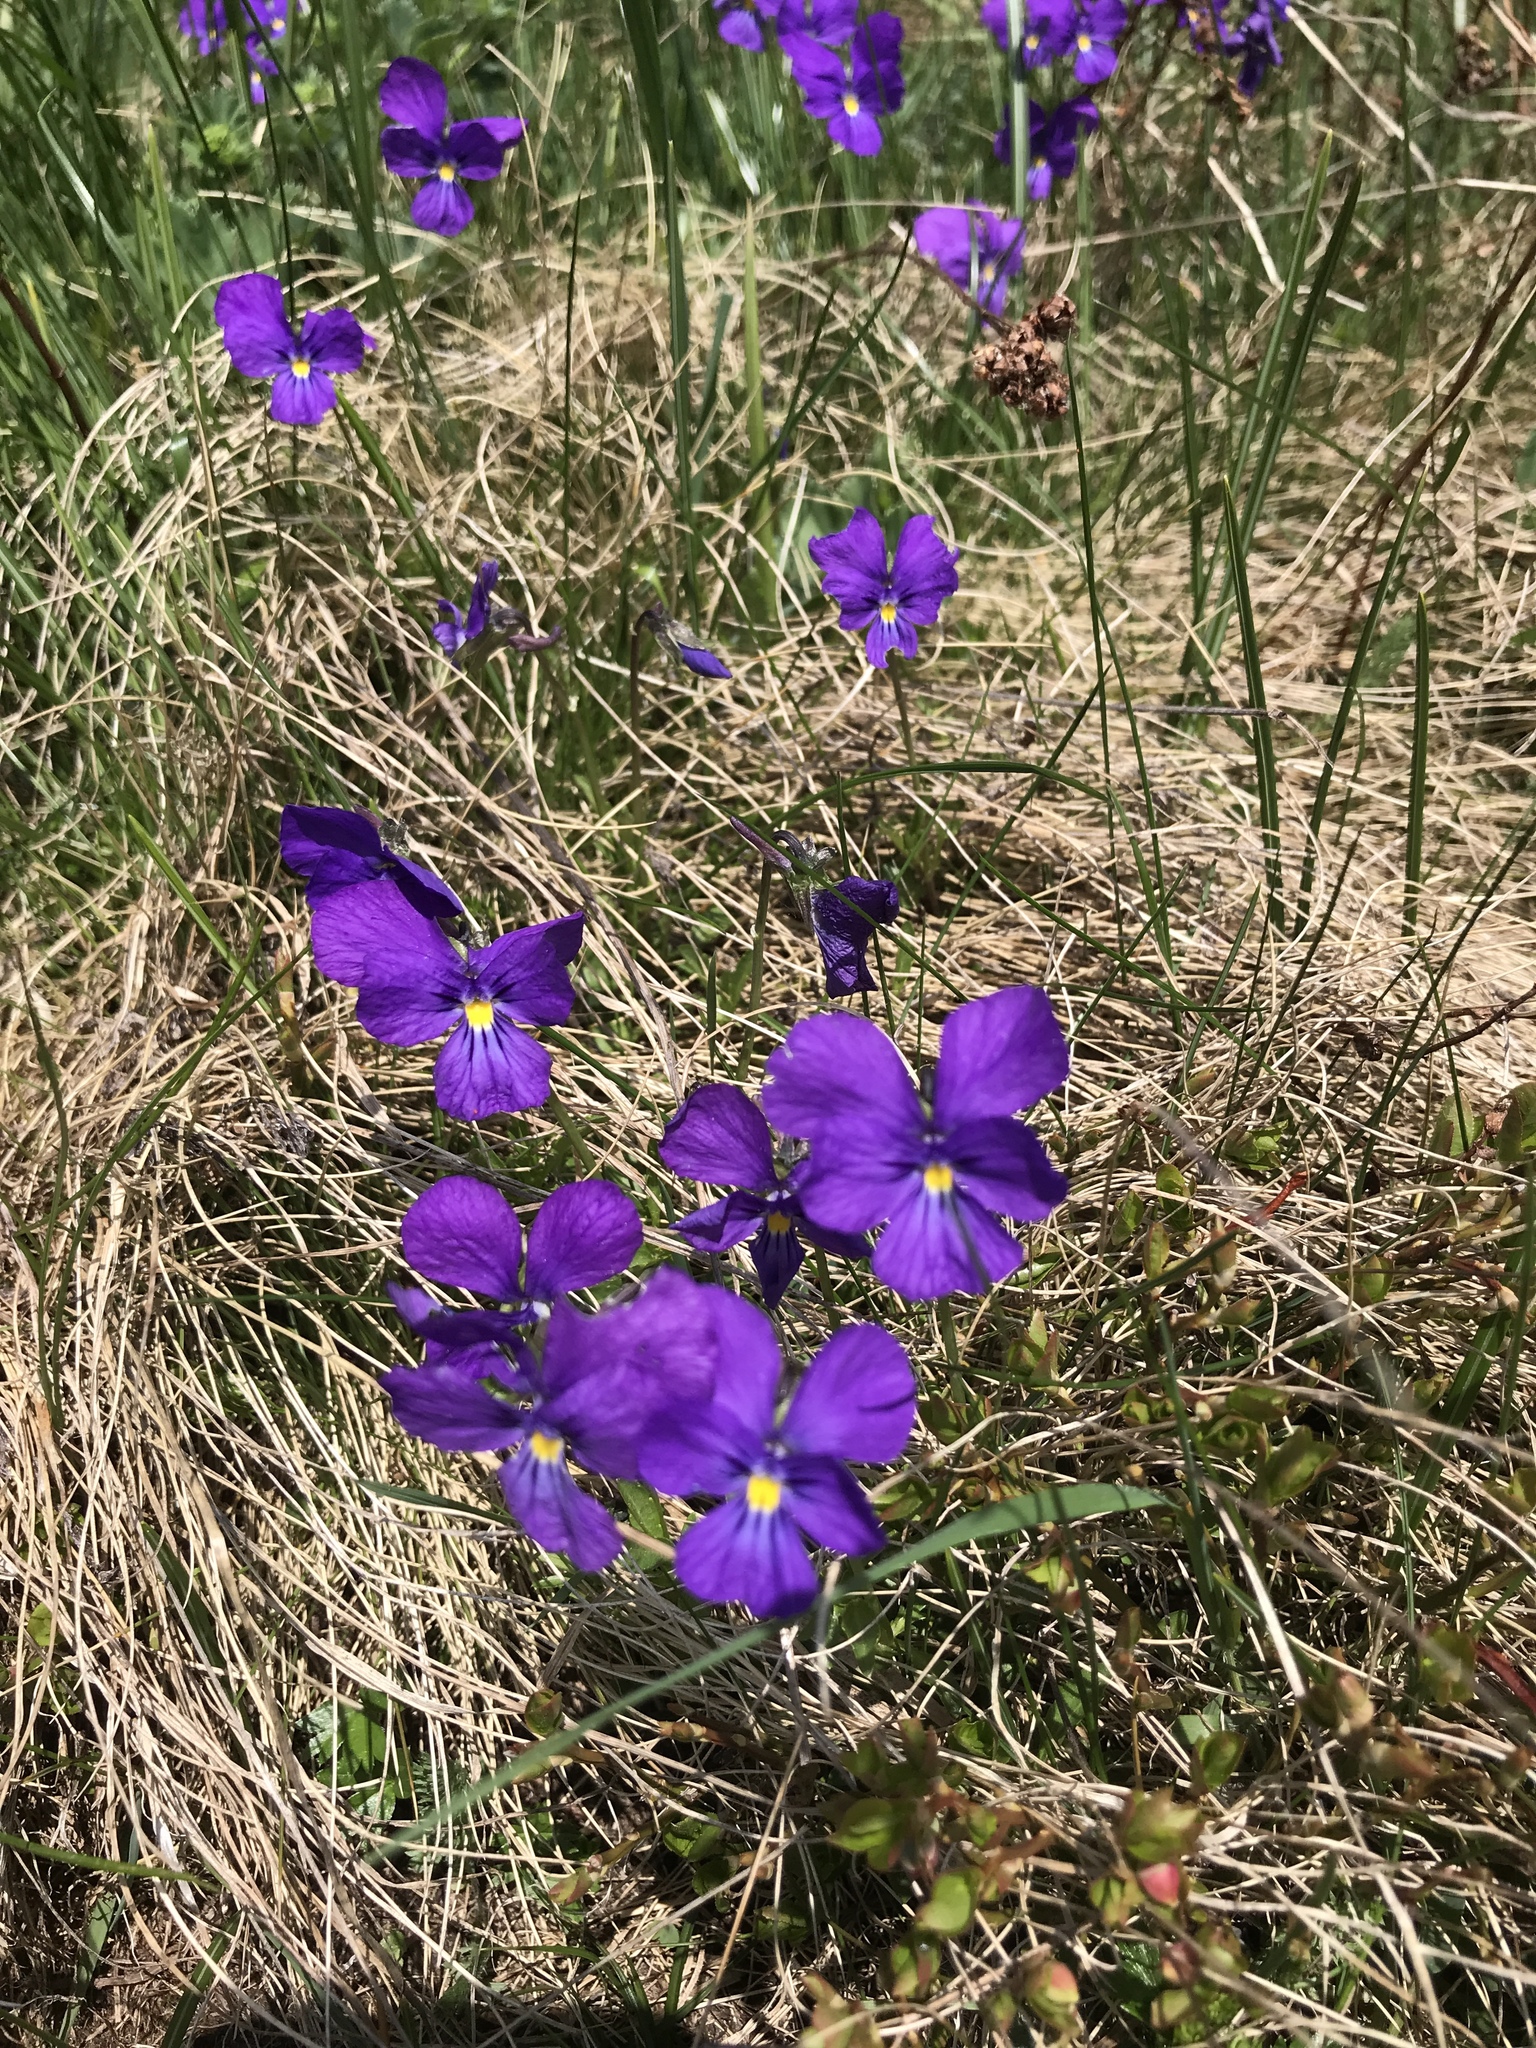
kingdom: Plantae
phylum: Tracheophyta
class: Magnoliopsida
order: Malpighiales
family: Violaceae
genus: Viola
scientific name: Viola calcarata
